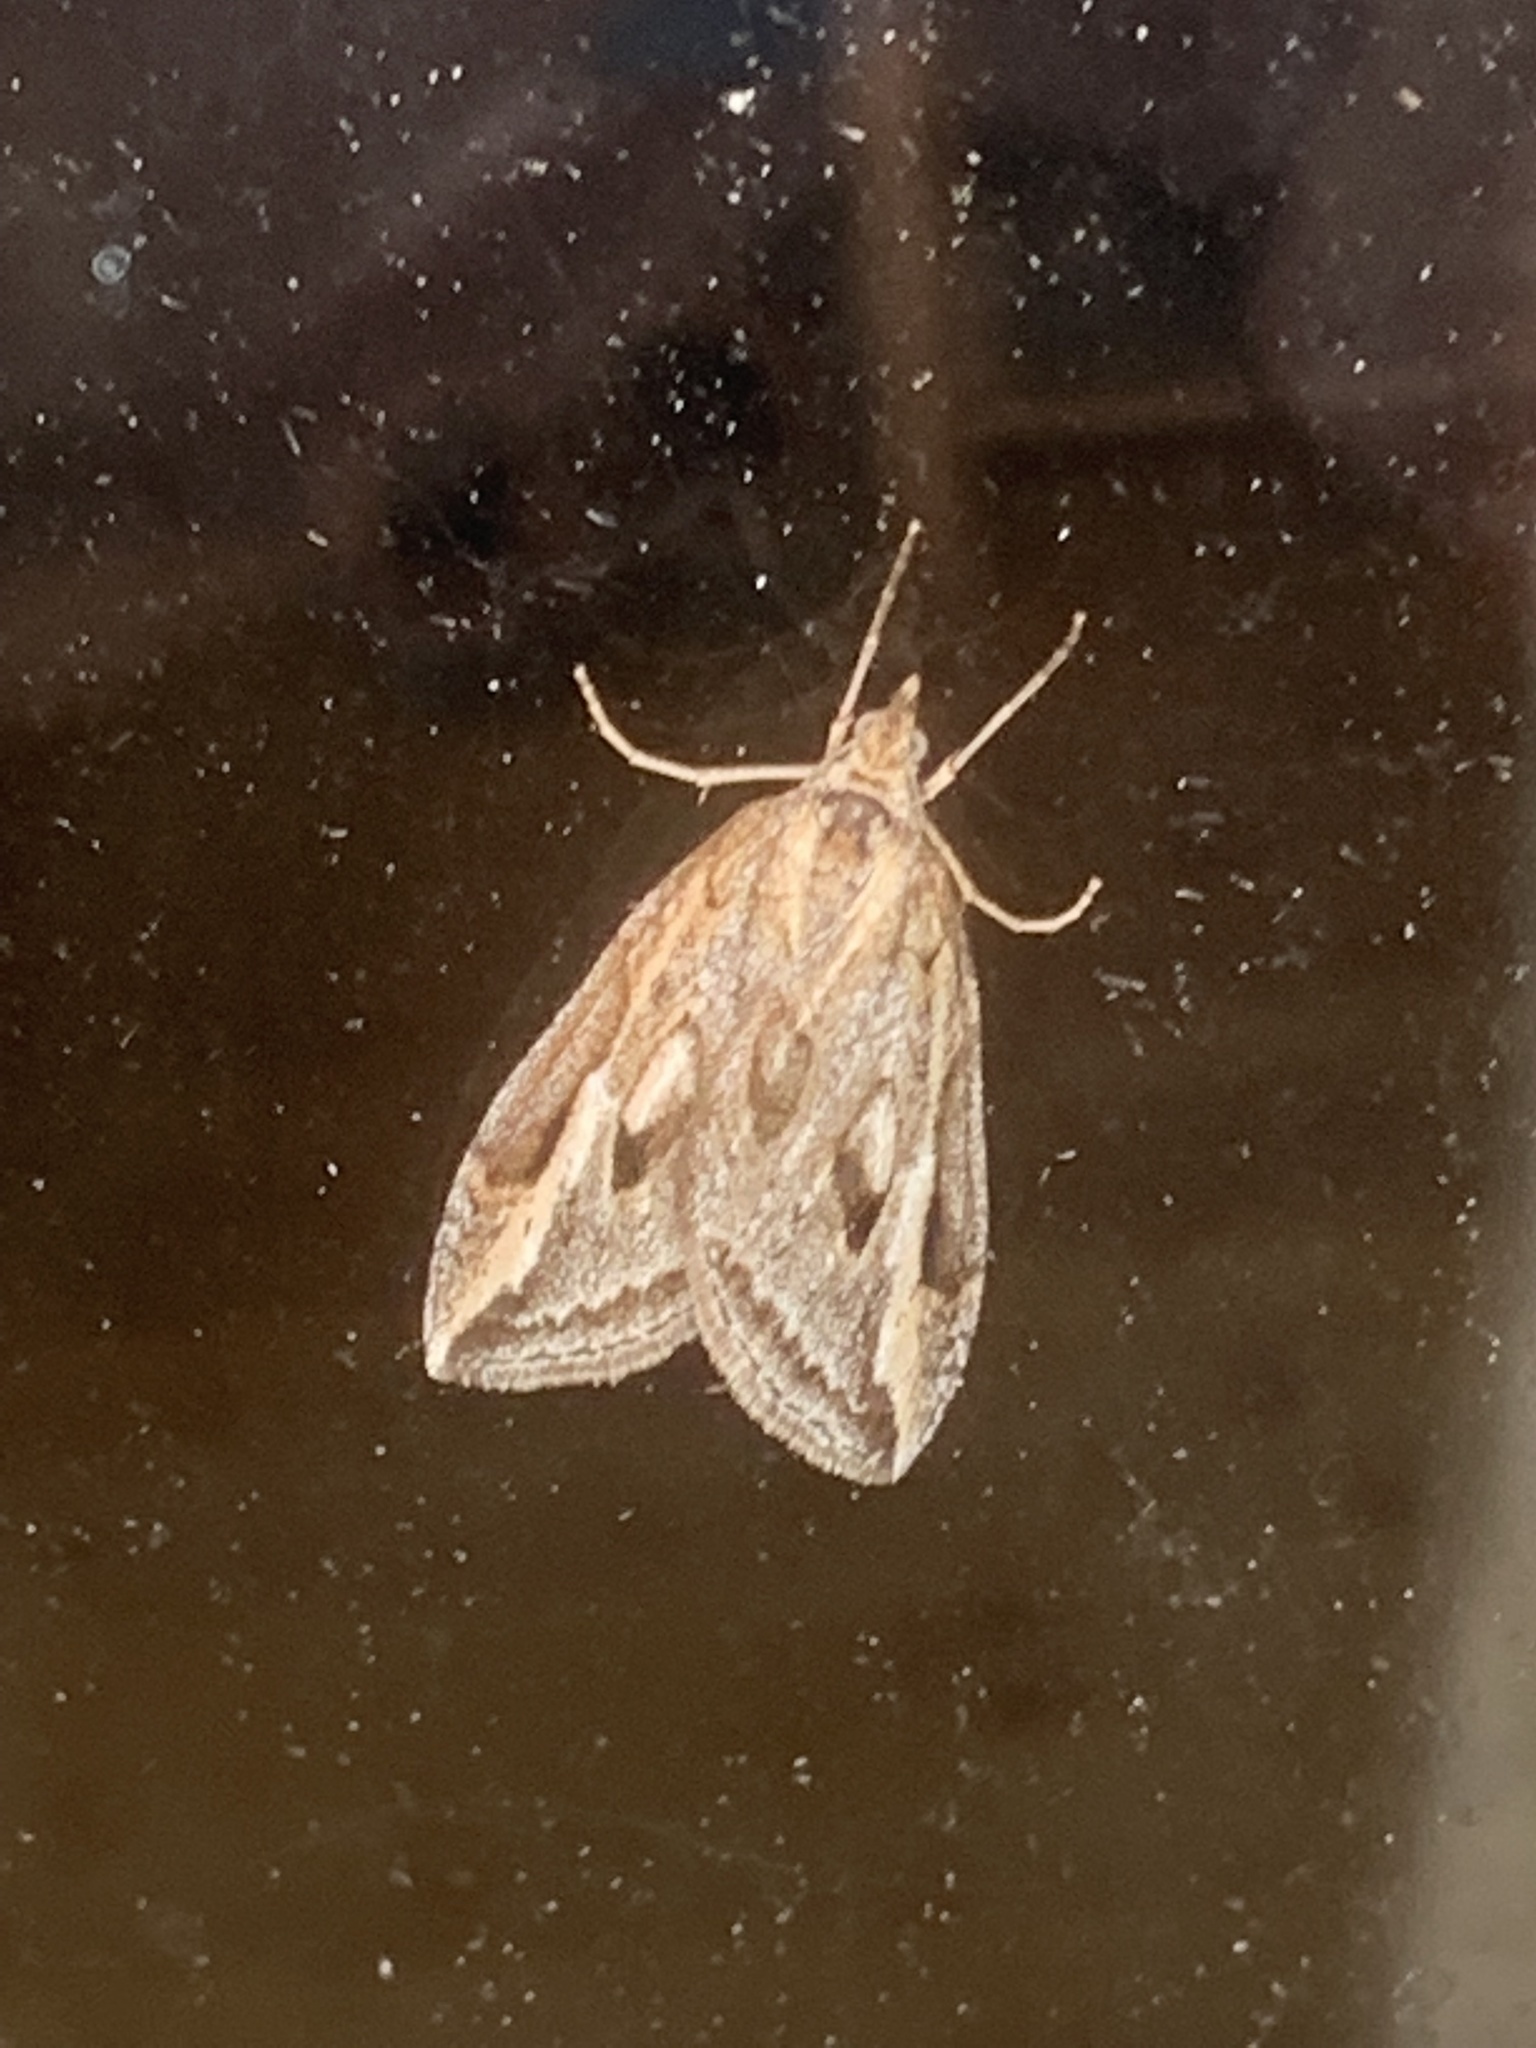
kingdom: Animalia
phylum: Arthropoda
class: Insecta
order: Lepidoptera
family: Geometridae
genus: Chesias
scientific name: Chesias legatella
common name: Streak
